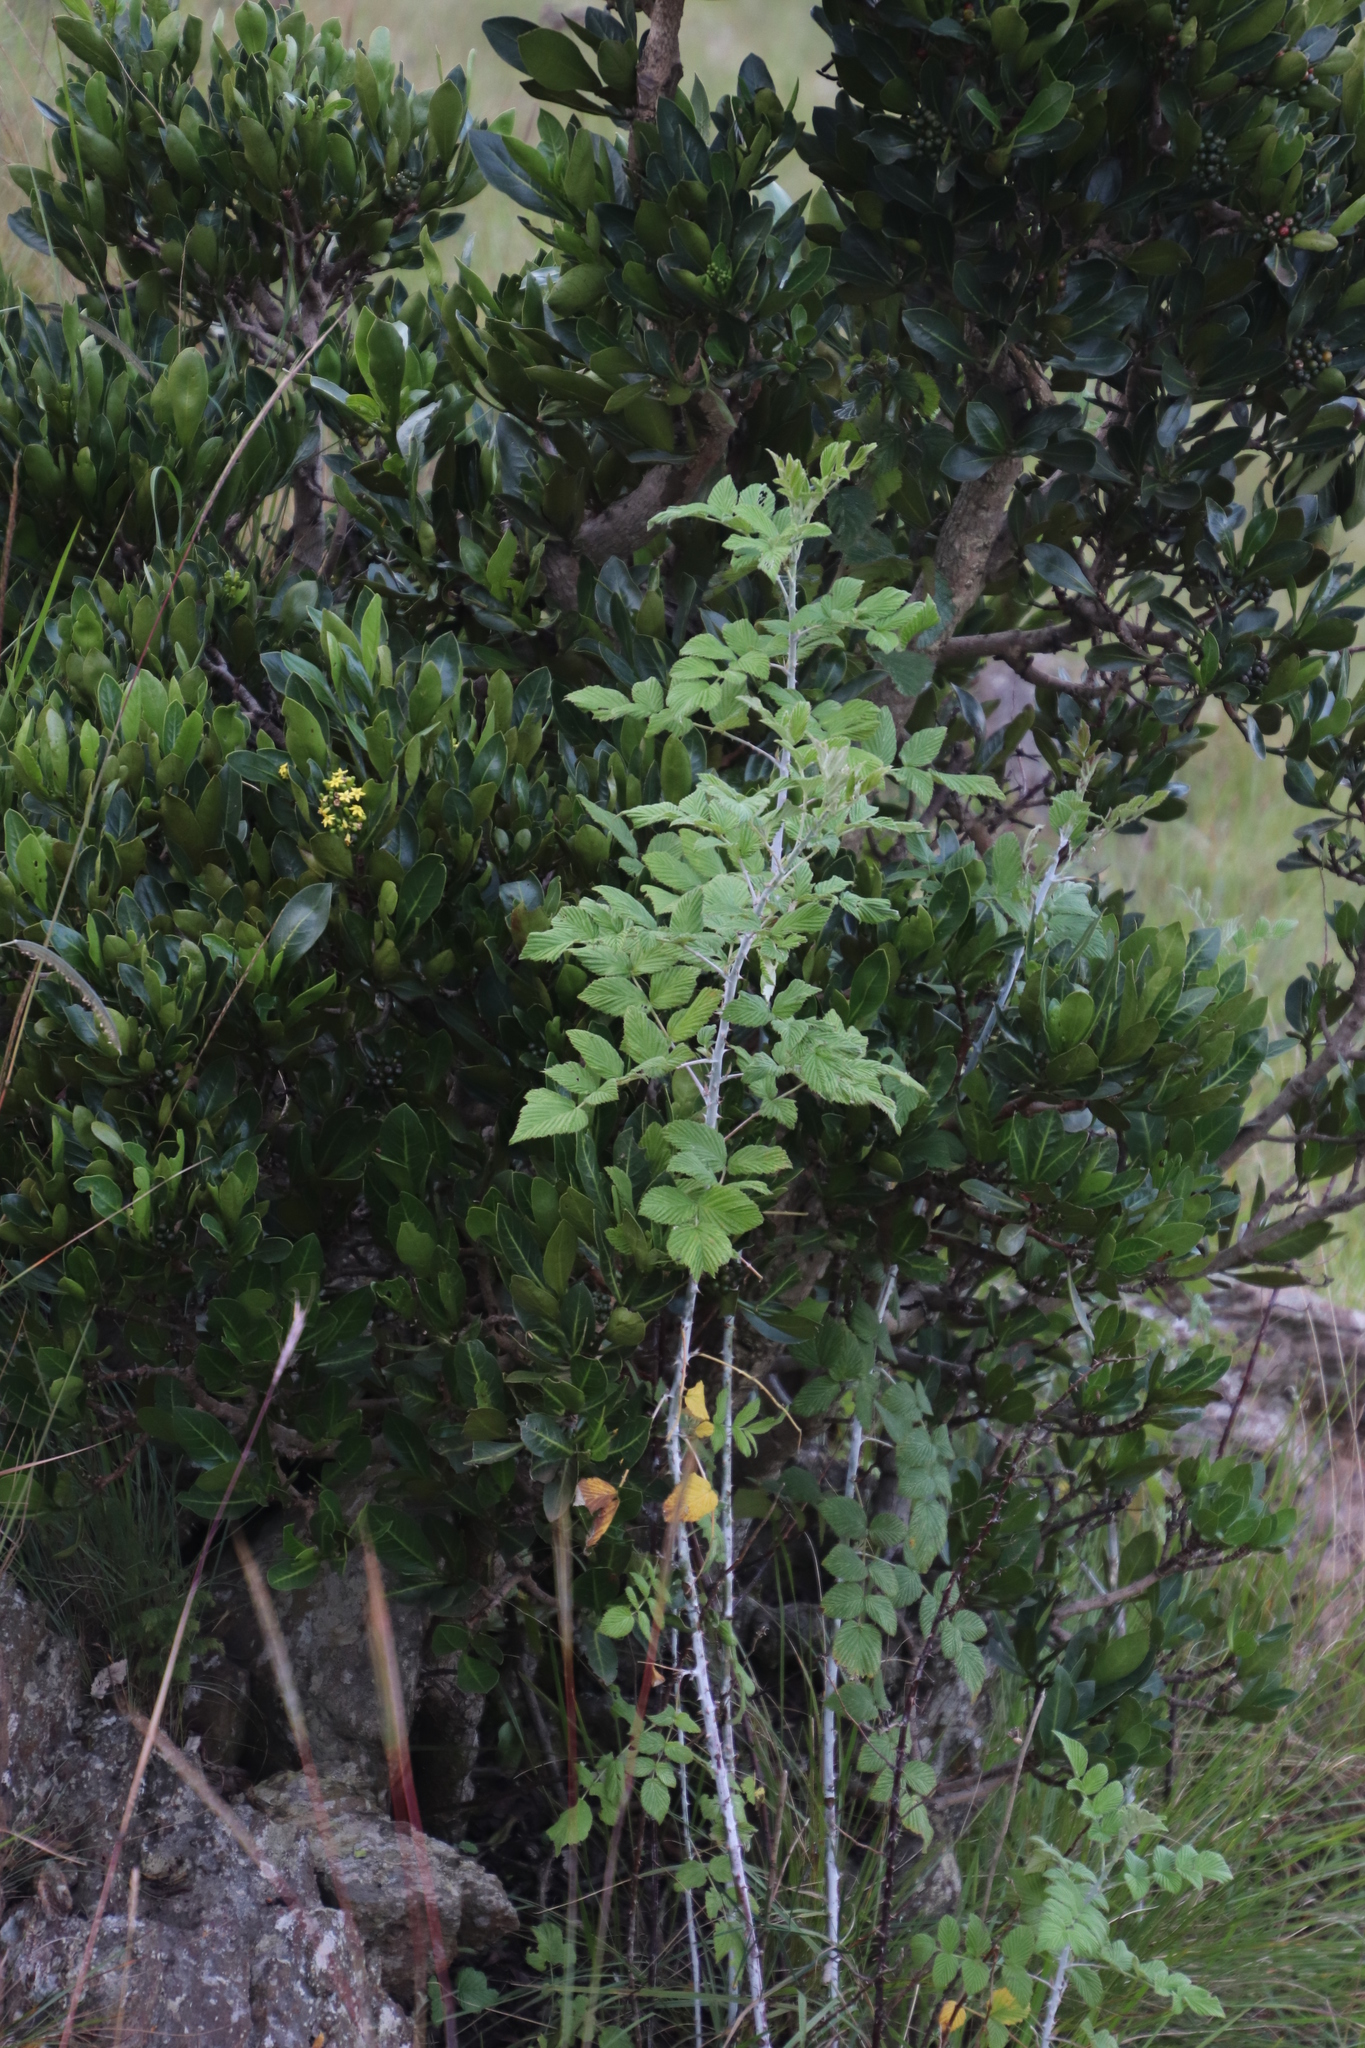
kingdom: Plantae
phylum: Tracheophyta
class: Magnoliopsida
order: Rosales
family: Rosaceae
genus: Rubus
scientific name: Rubus niveus
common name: Snowpeaks raspberry
